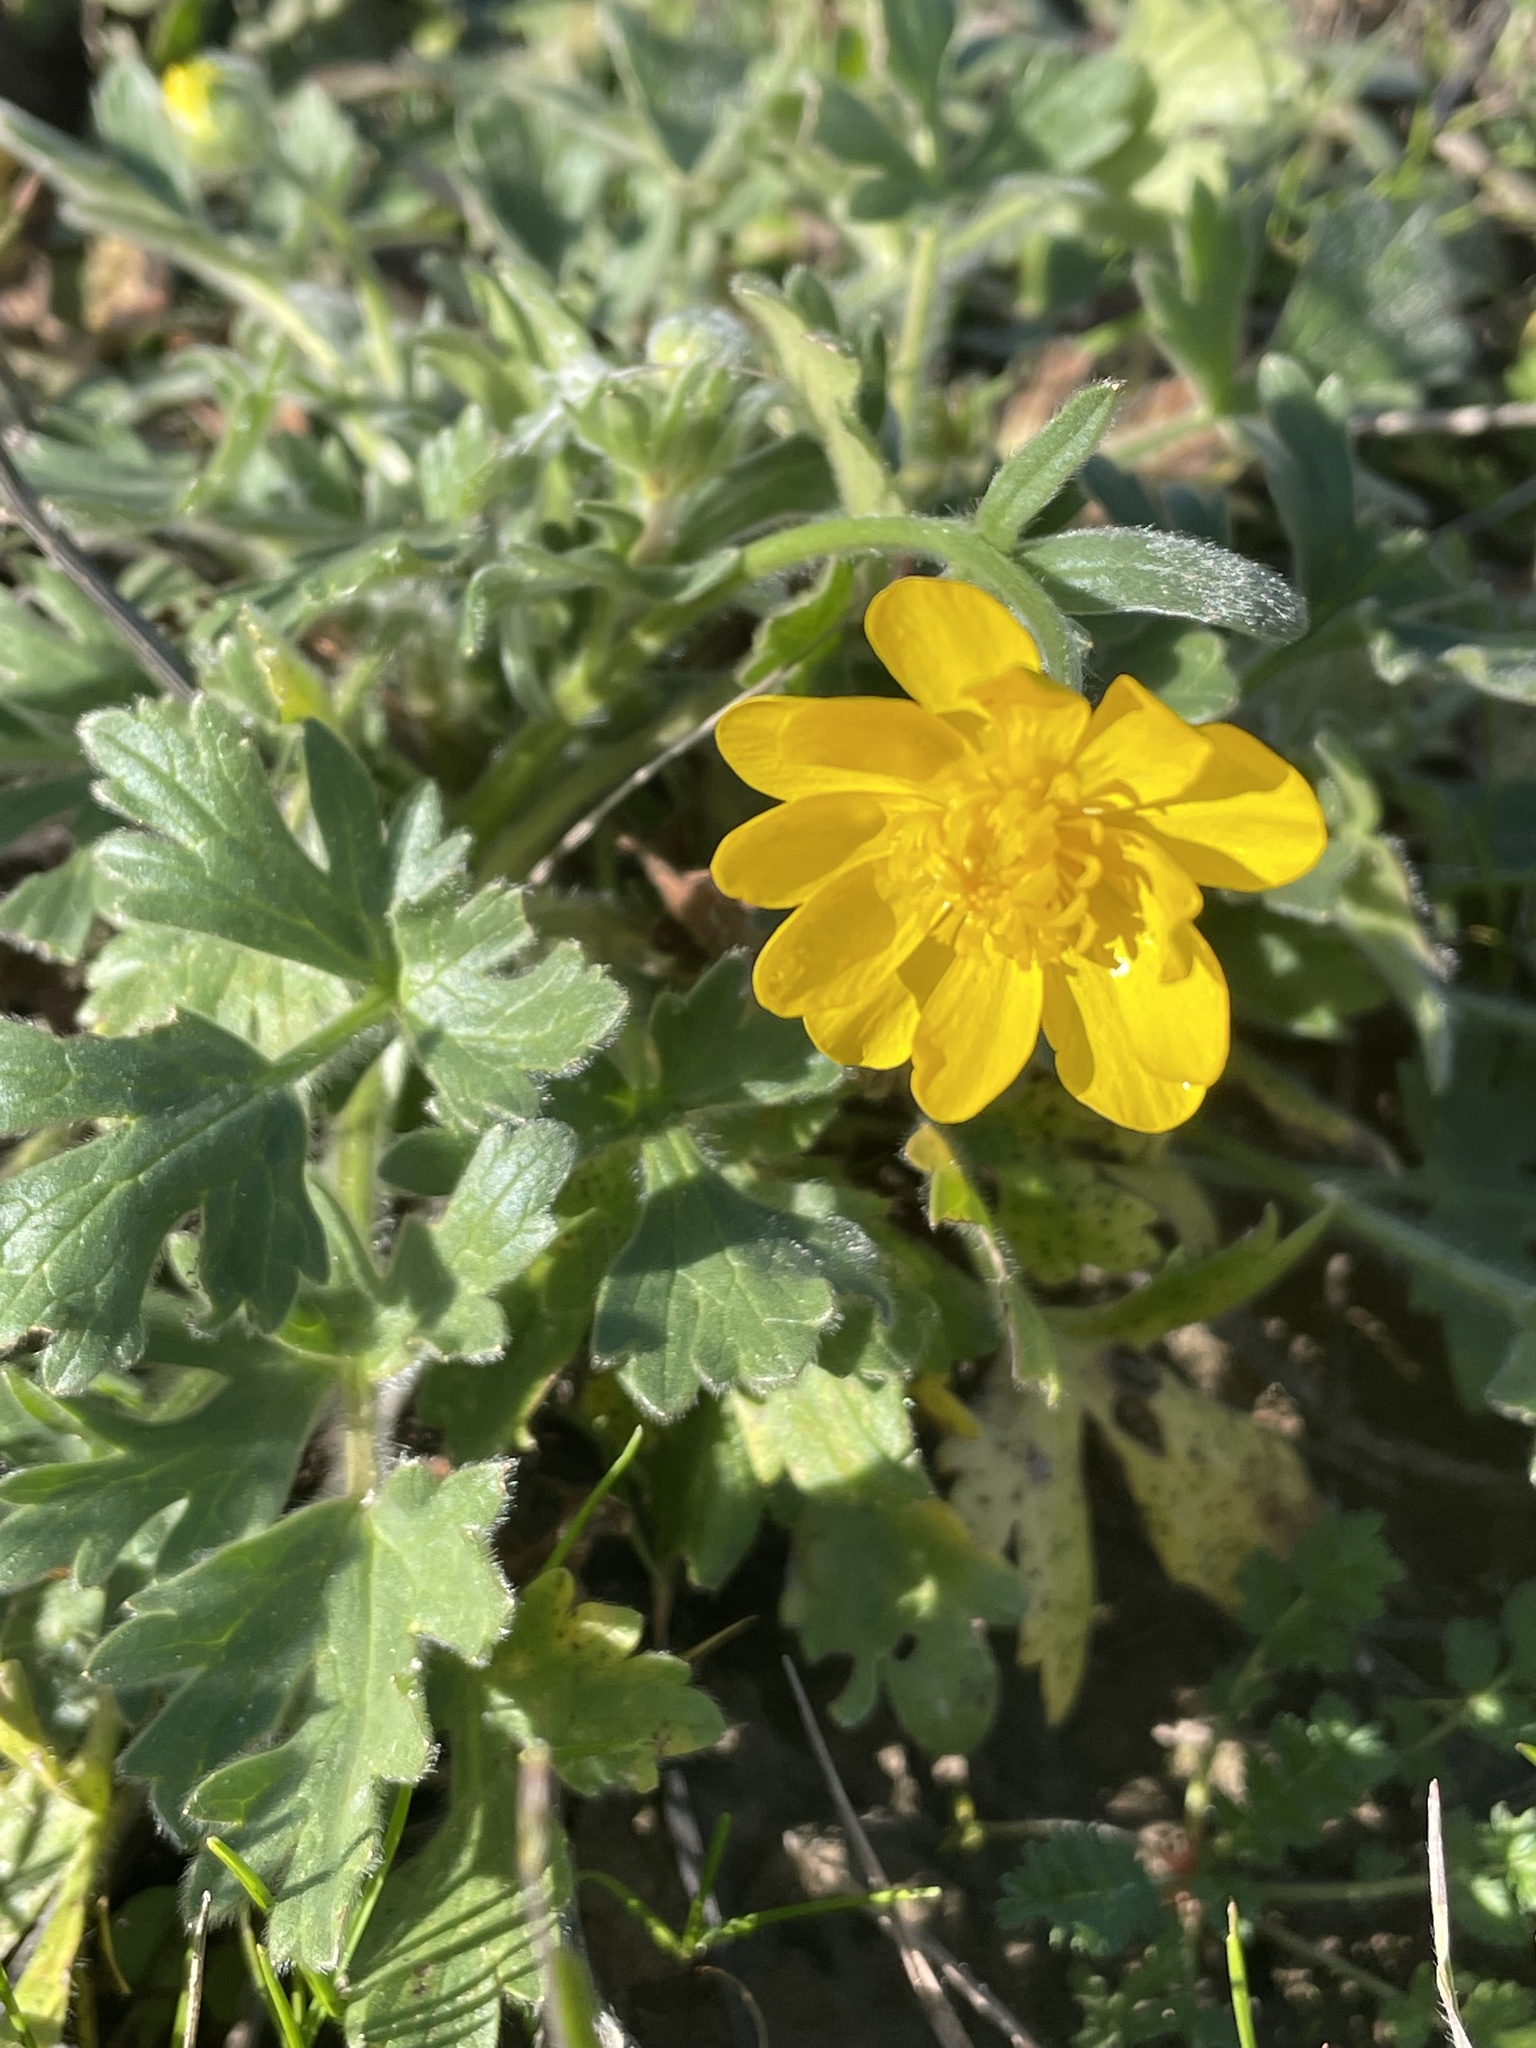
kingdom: Plantae
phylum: Tracheophyta
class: Magnoliopsida
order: Ranunculales
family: Ranunculaceae
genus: Ranunculus
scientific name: Ranunculus californicus
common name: California buttercup
